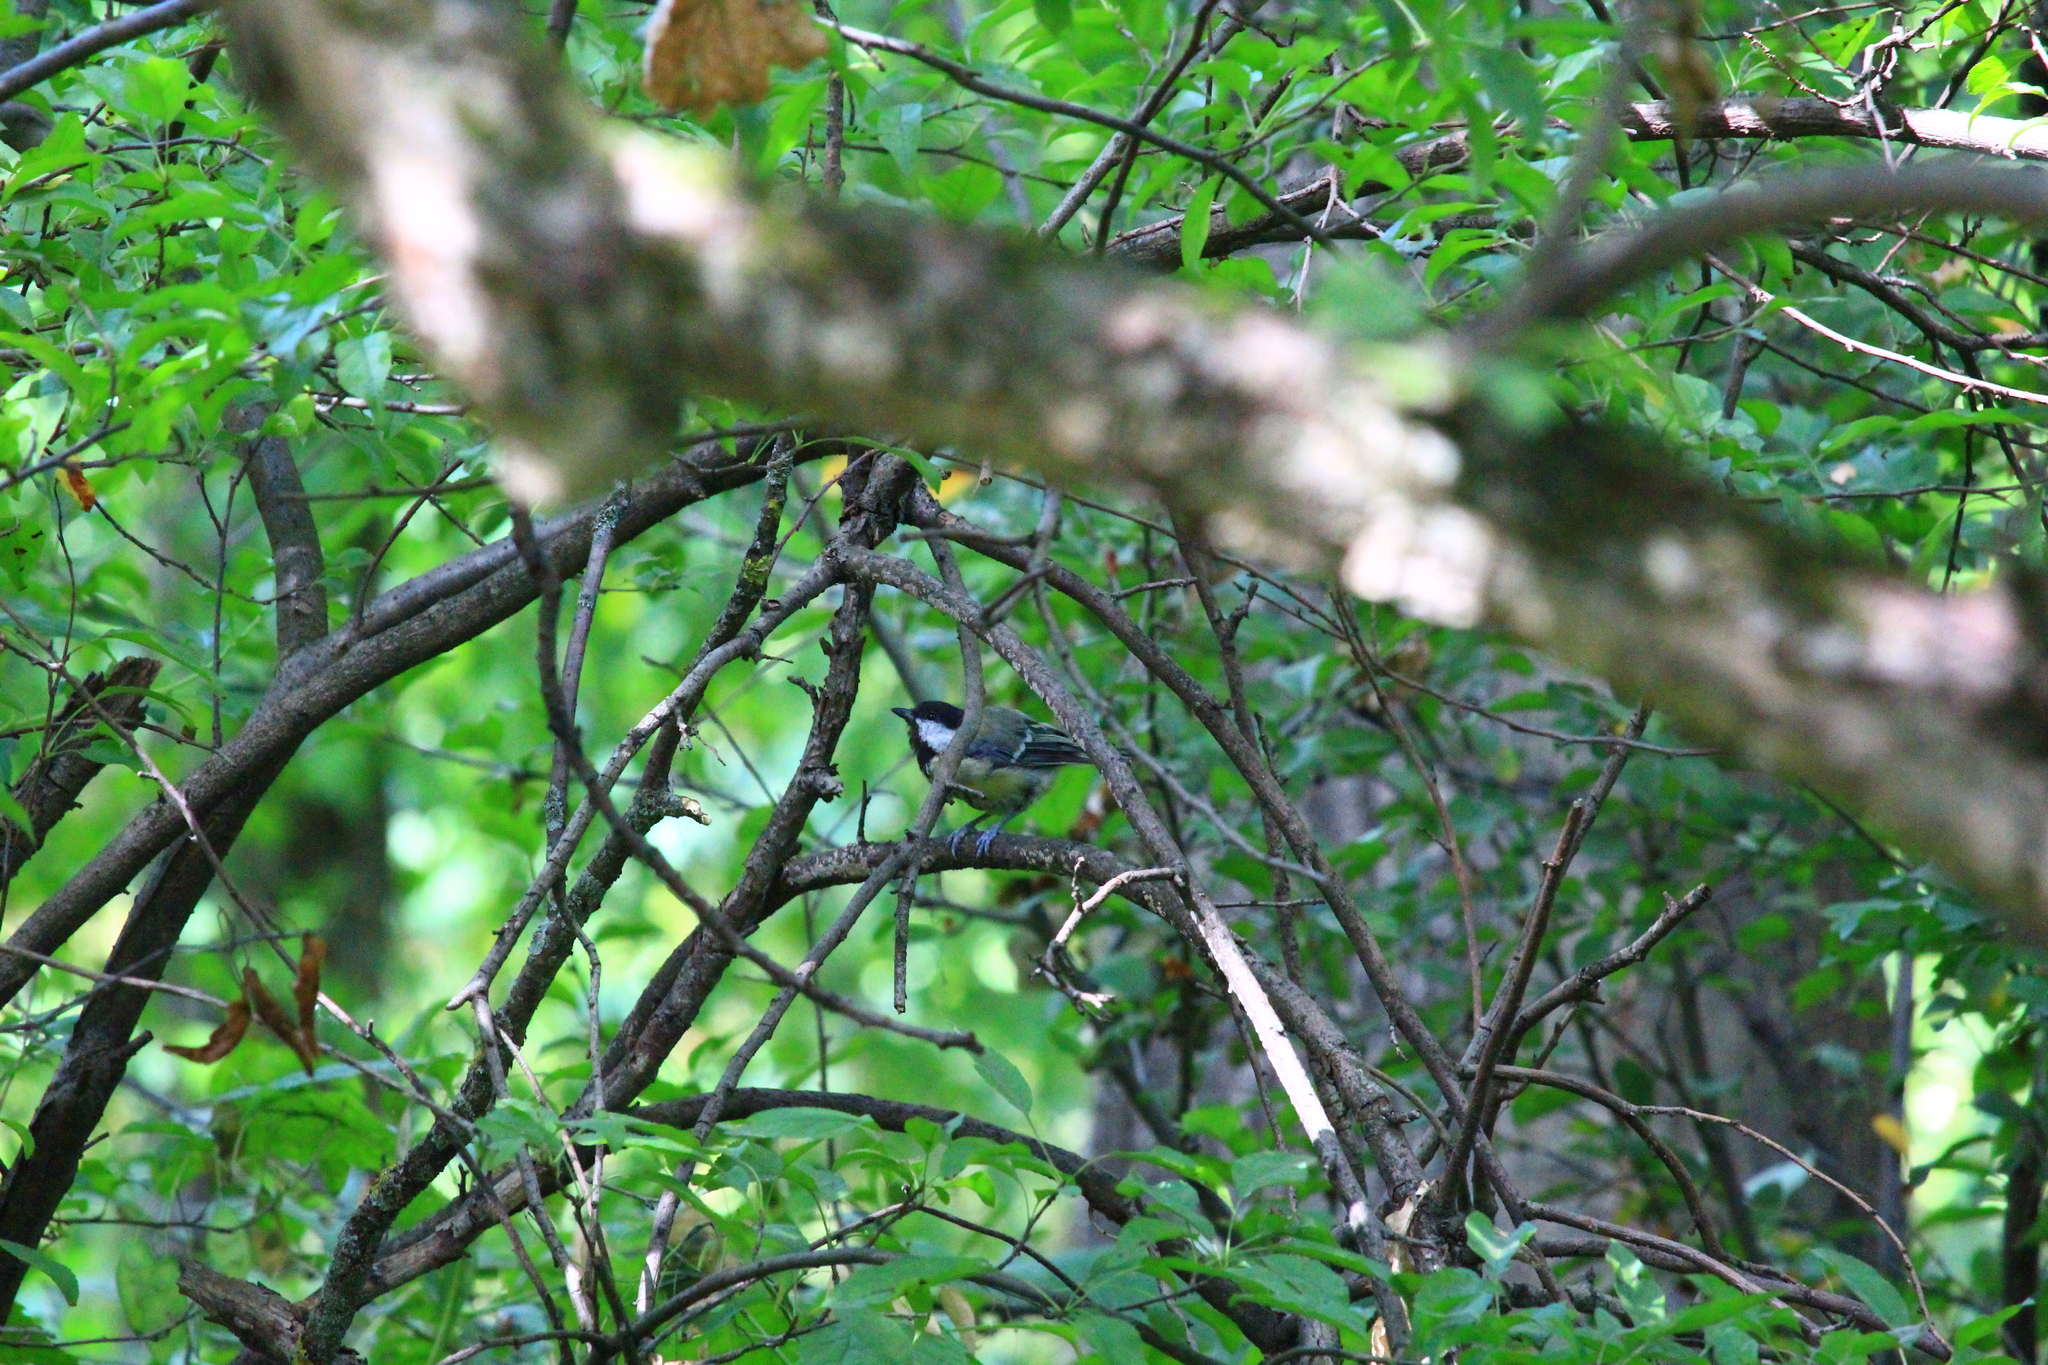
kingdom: Animalia
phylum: Chordata
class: Aves
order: Passeriformes
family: Paridae
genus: Parus
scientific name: Parus major
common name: Great tit
